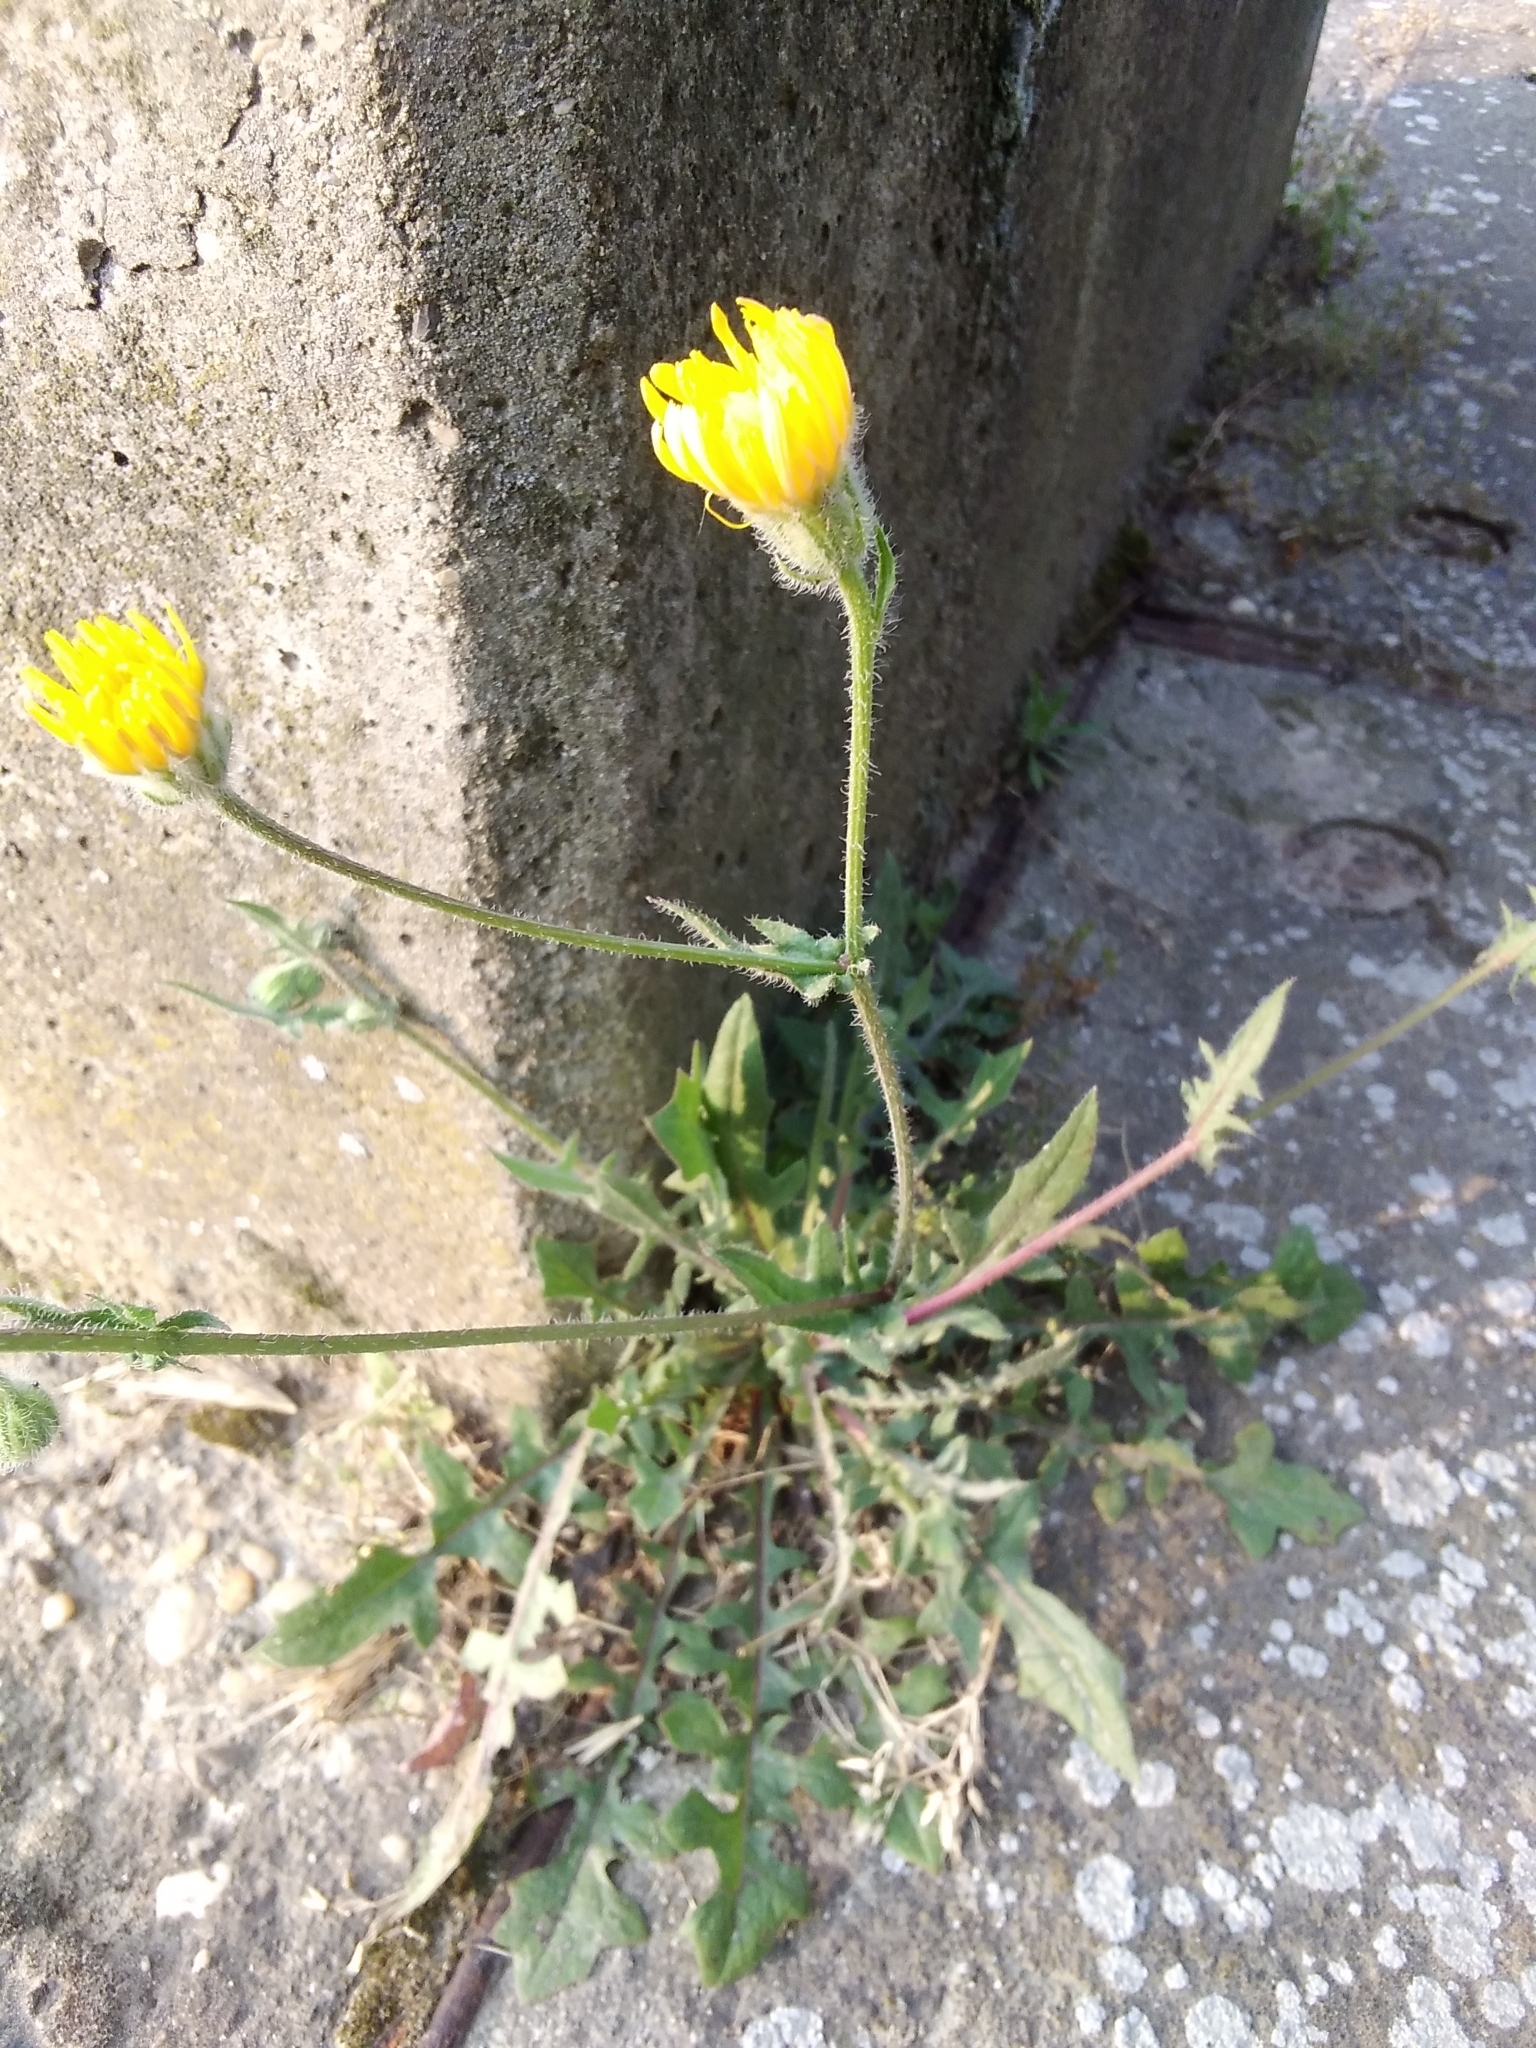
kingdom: Plantae
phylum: Tracheophyta
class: Magnoliopsida
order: Asterales
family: Asteraceae
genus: Crepis
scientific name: Crepis foetida
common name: Stinking hawk's-beard
